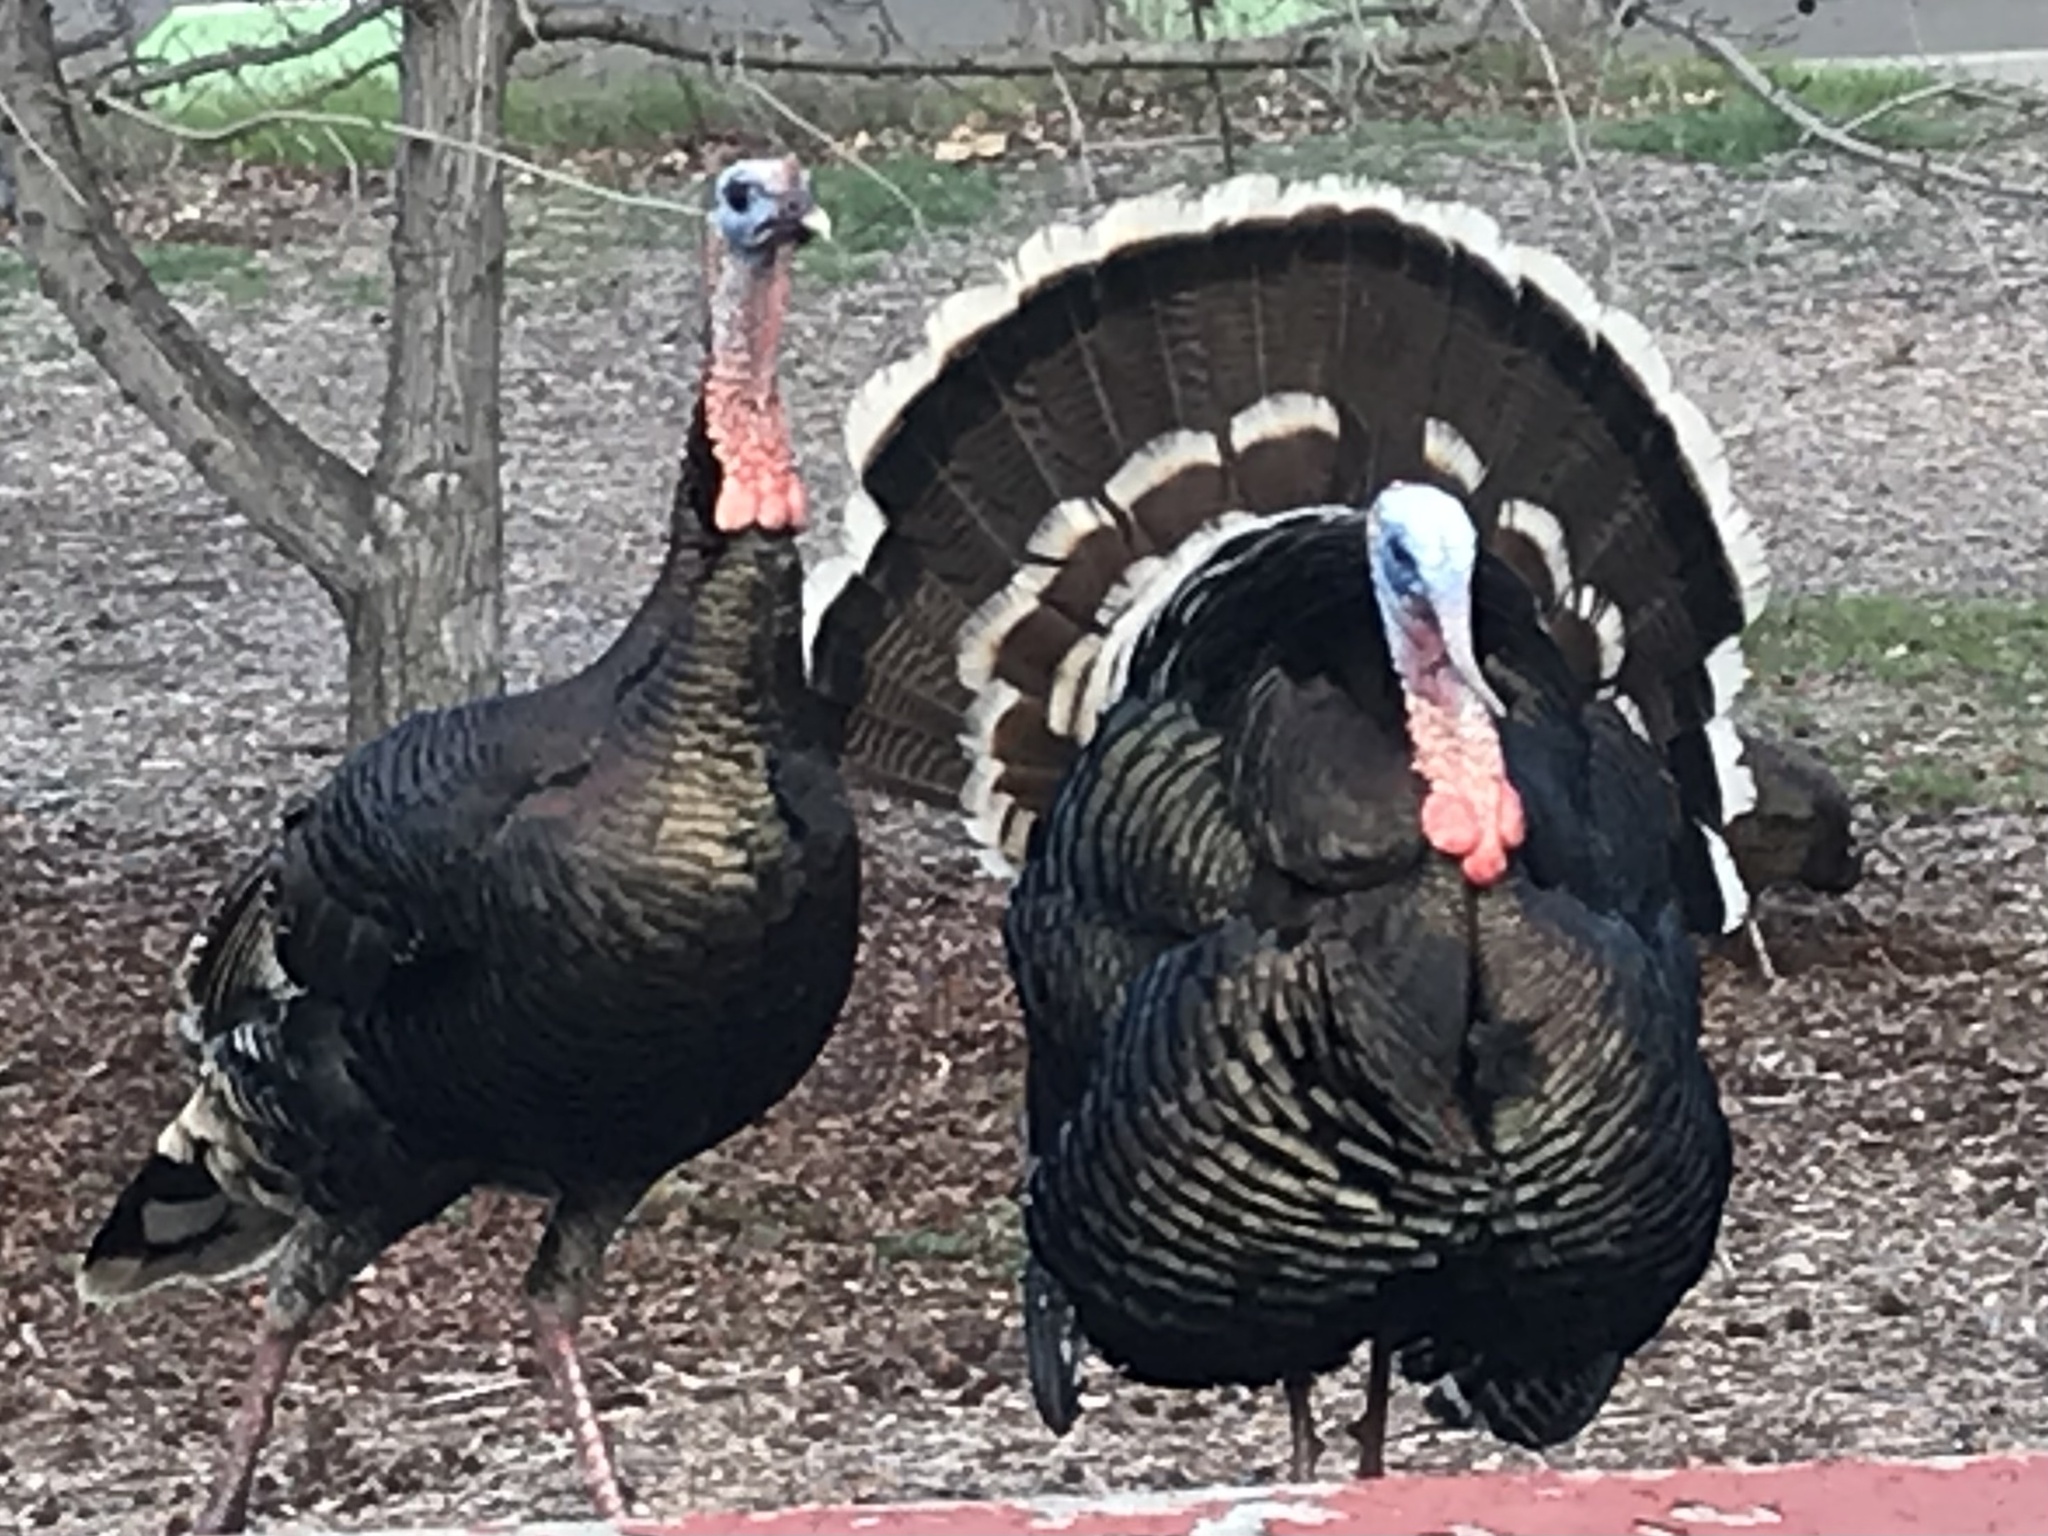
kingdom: Animalia
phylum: Chordata
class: Aves
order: Galliformes
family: Phasianidae
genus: Meleagris
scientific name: Meleagris gallopavo
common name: Wild turkey
